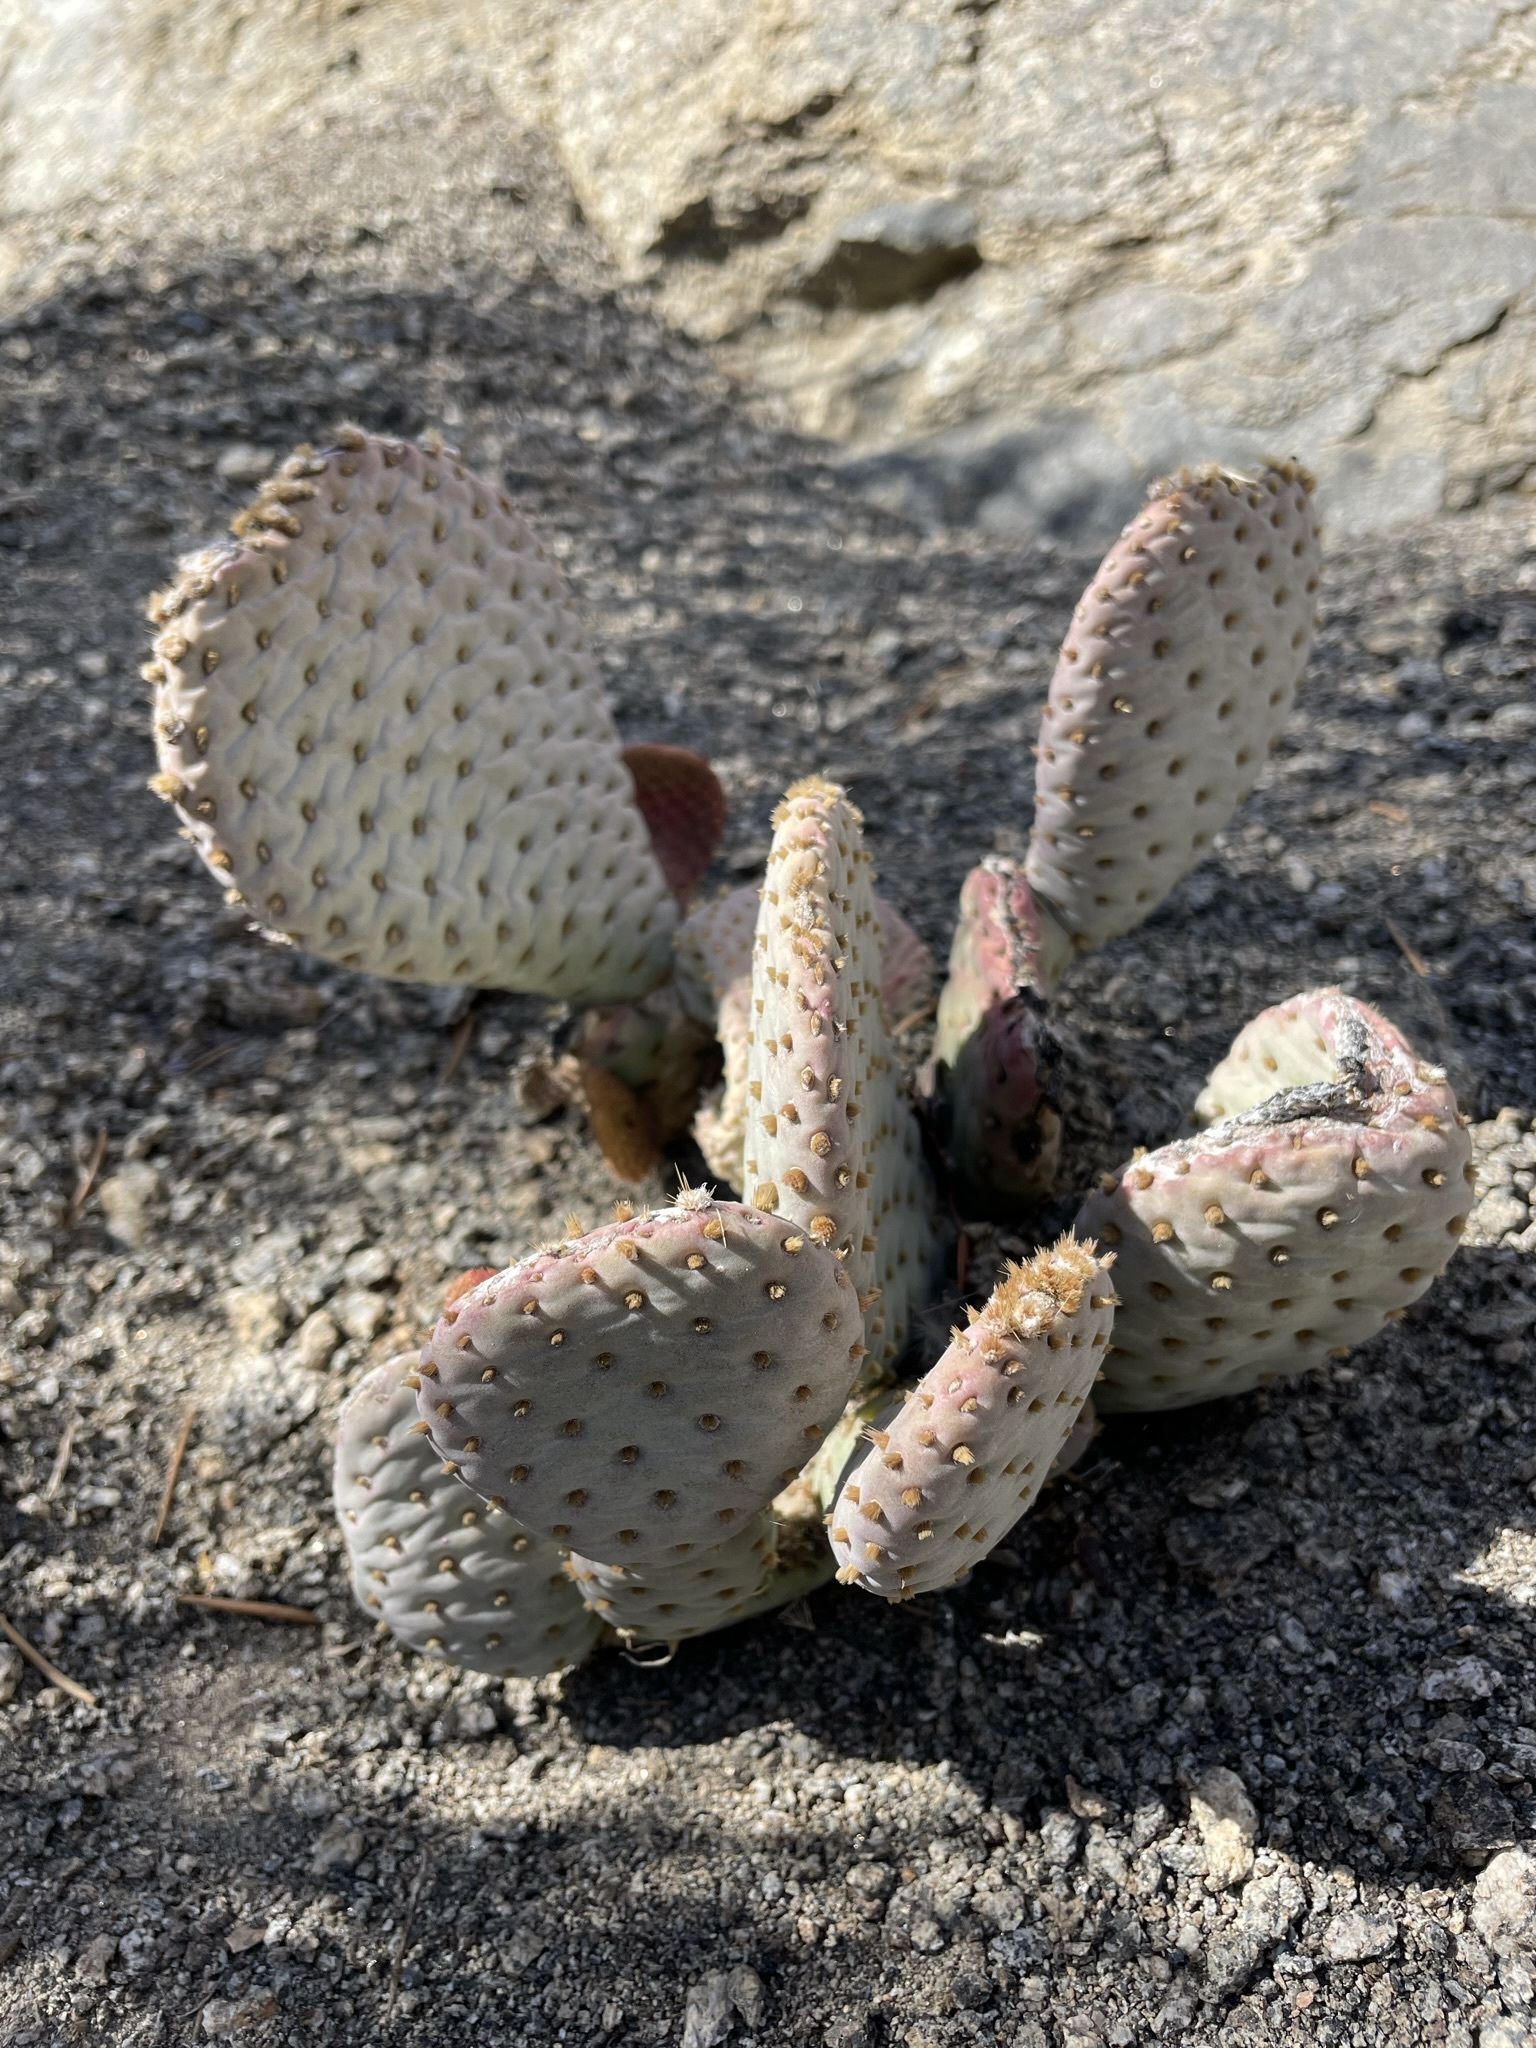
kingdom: Plantae
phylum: Tracheophyta
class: Magnoliopsida
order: Caryophyllales
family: Cactaceae
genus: Opuntia
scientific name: Opuntia basilaris
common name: Beavertail prickly-pear
